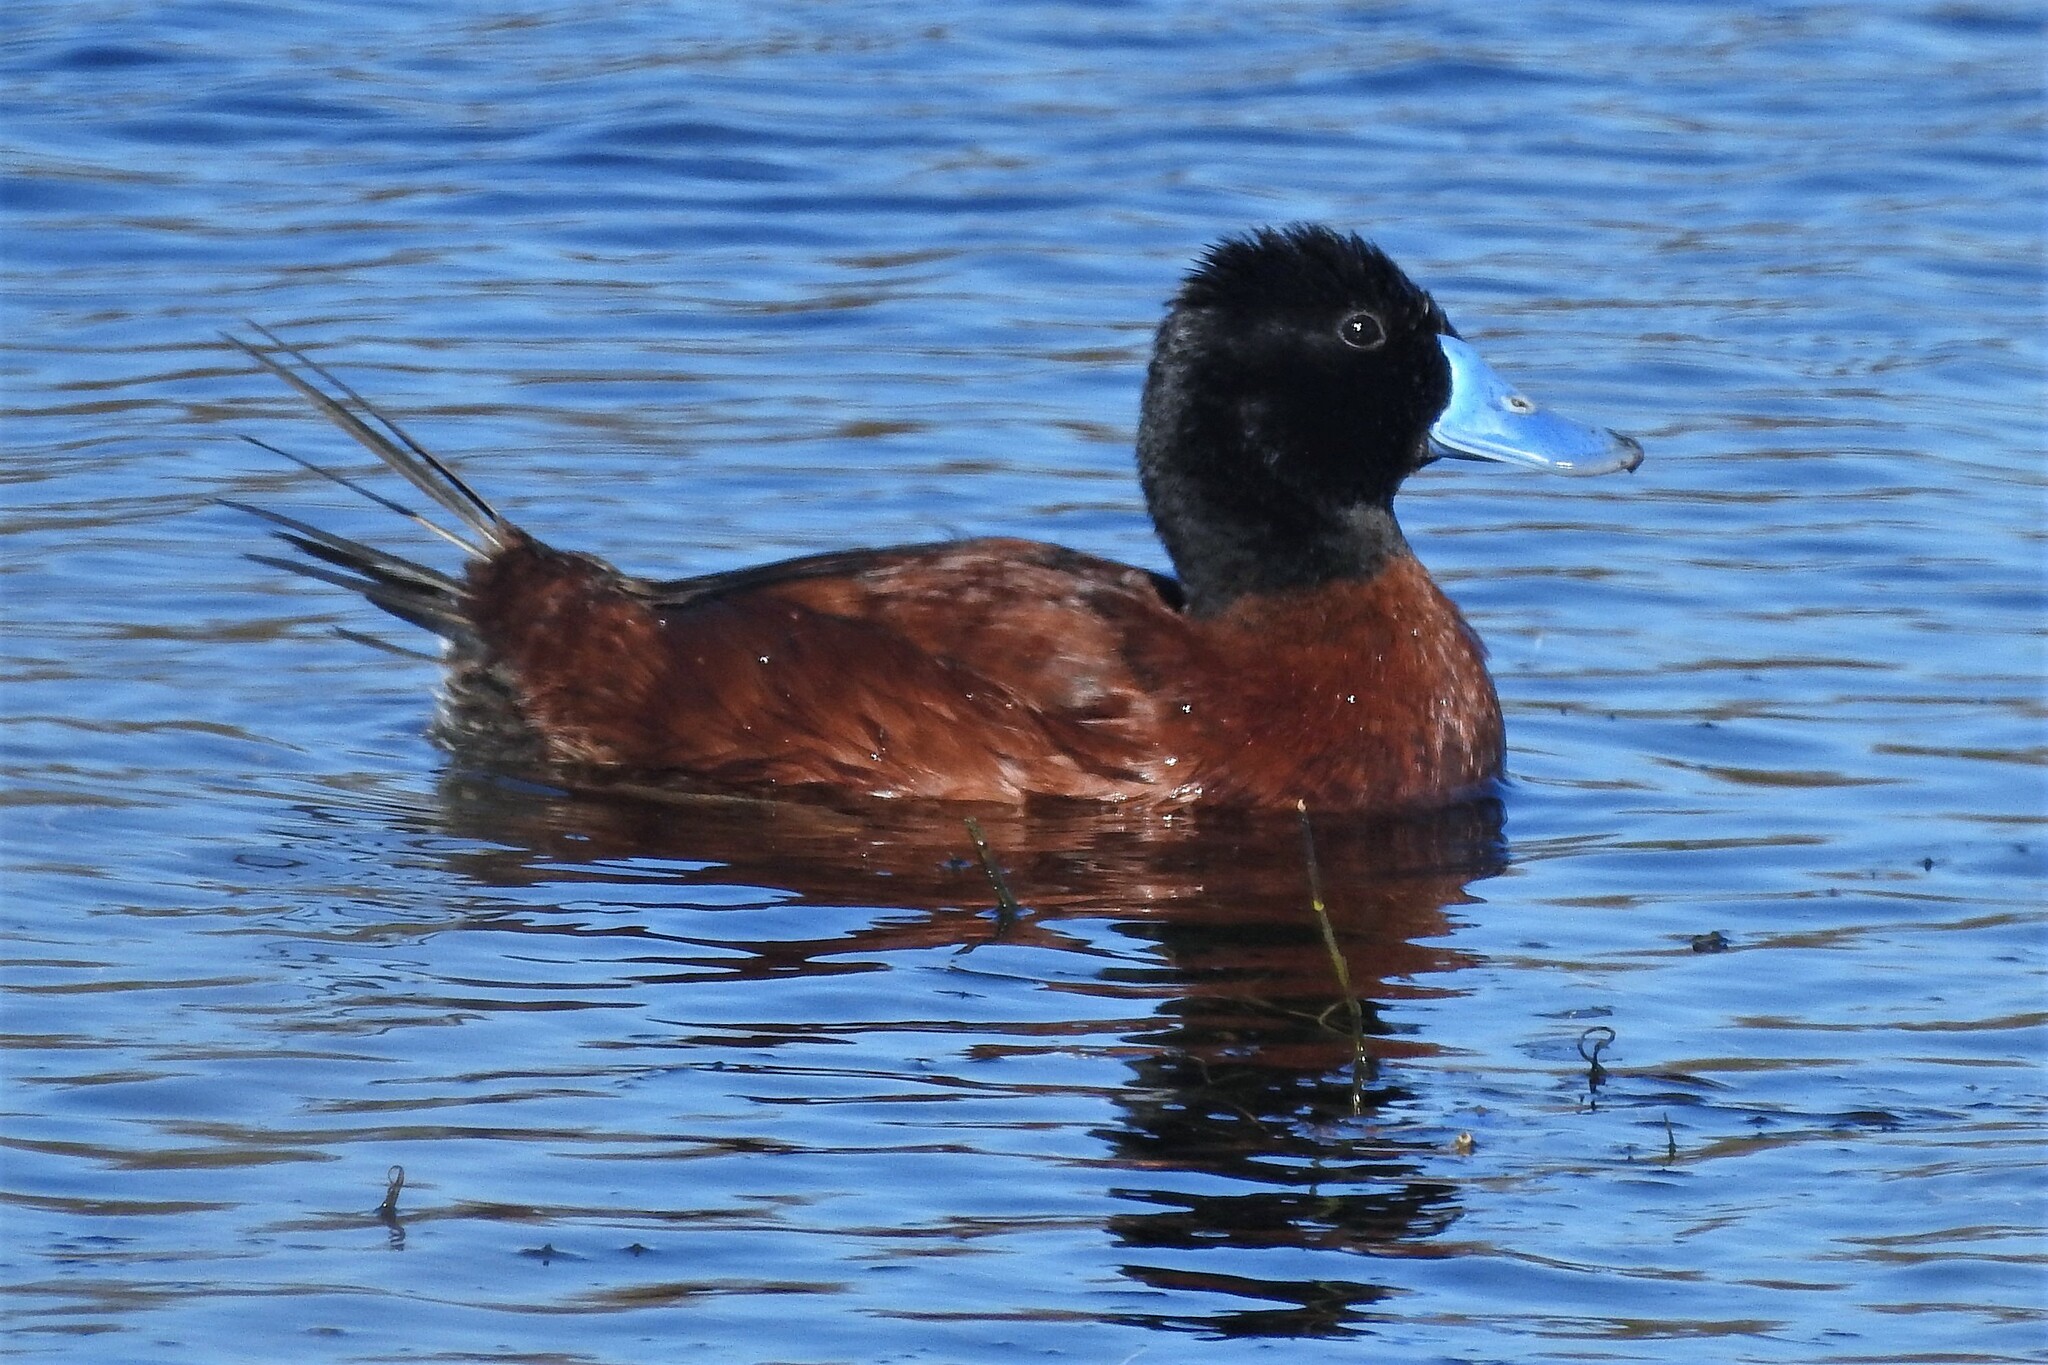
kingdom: Animalia
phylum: Chordata
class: Aves
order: Anseriformes
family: Anatidae
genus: Oxyura
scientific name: Oxyura vittata
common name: Lake duck
